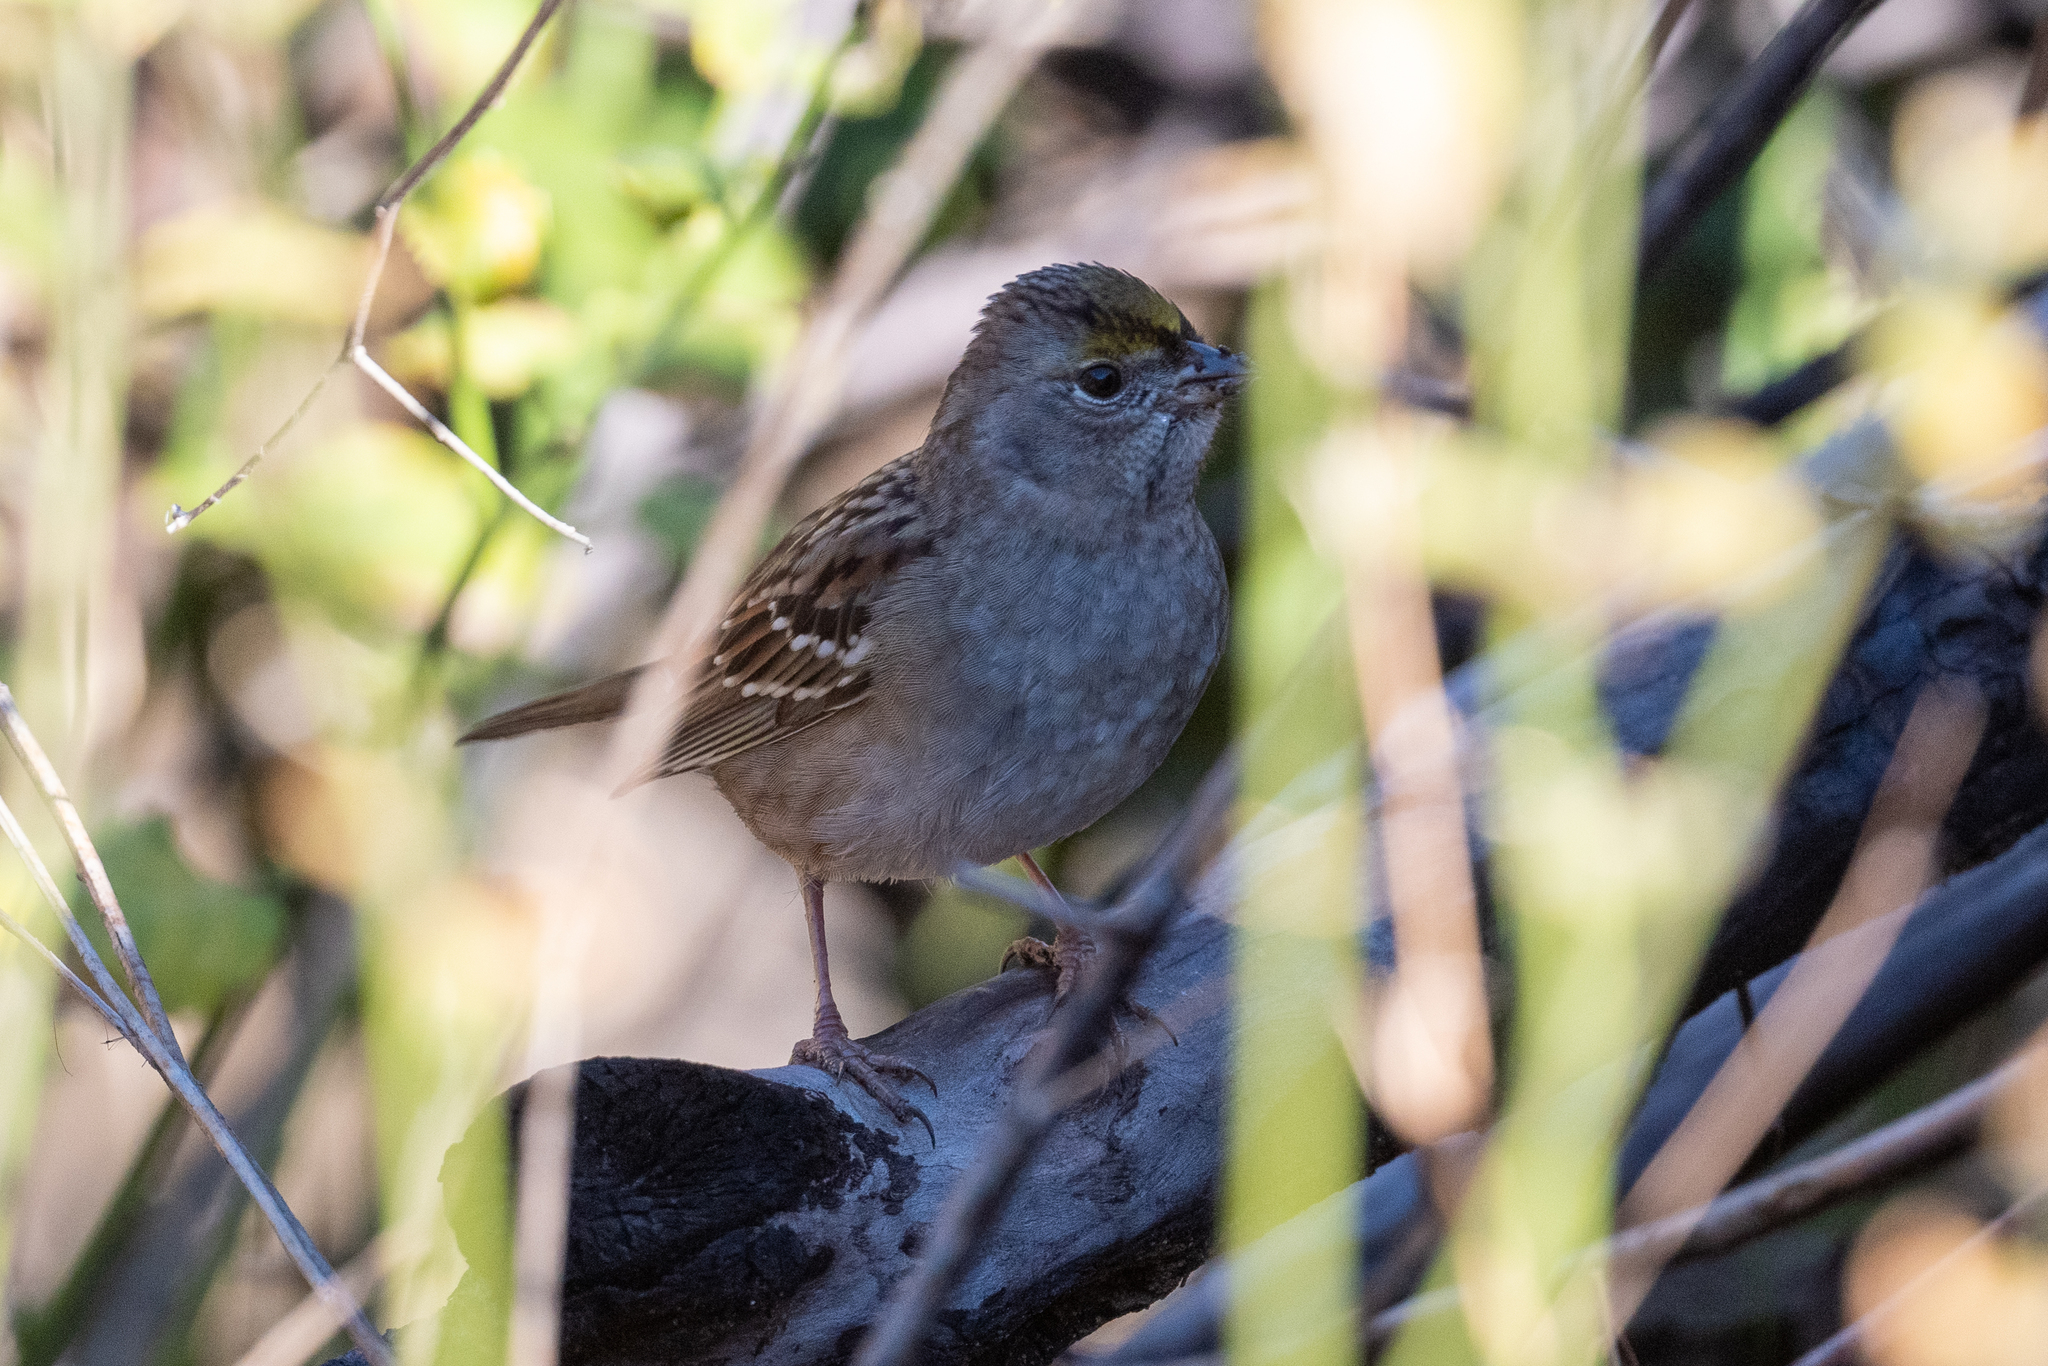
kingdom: Animalia
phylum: Chordata
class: Aves
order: Passeriformes
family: Passerellidae
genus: Zonotrichia
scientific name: Zonotrichia atricapilla
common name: Golden-crowned sparrow
